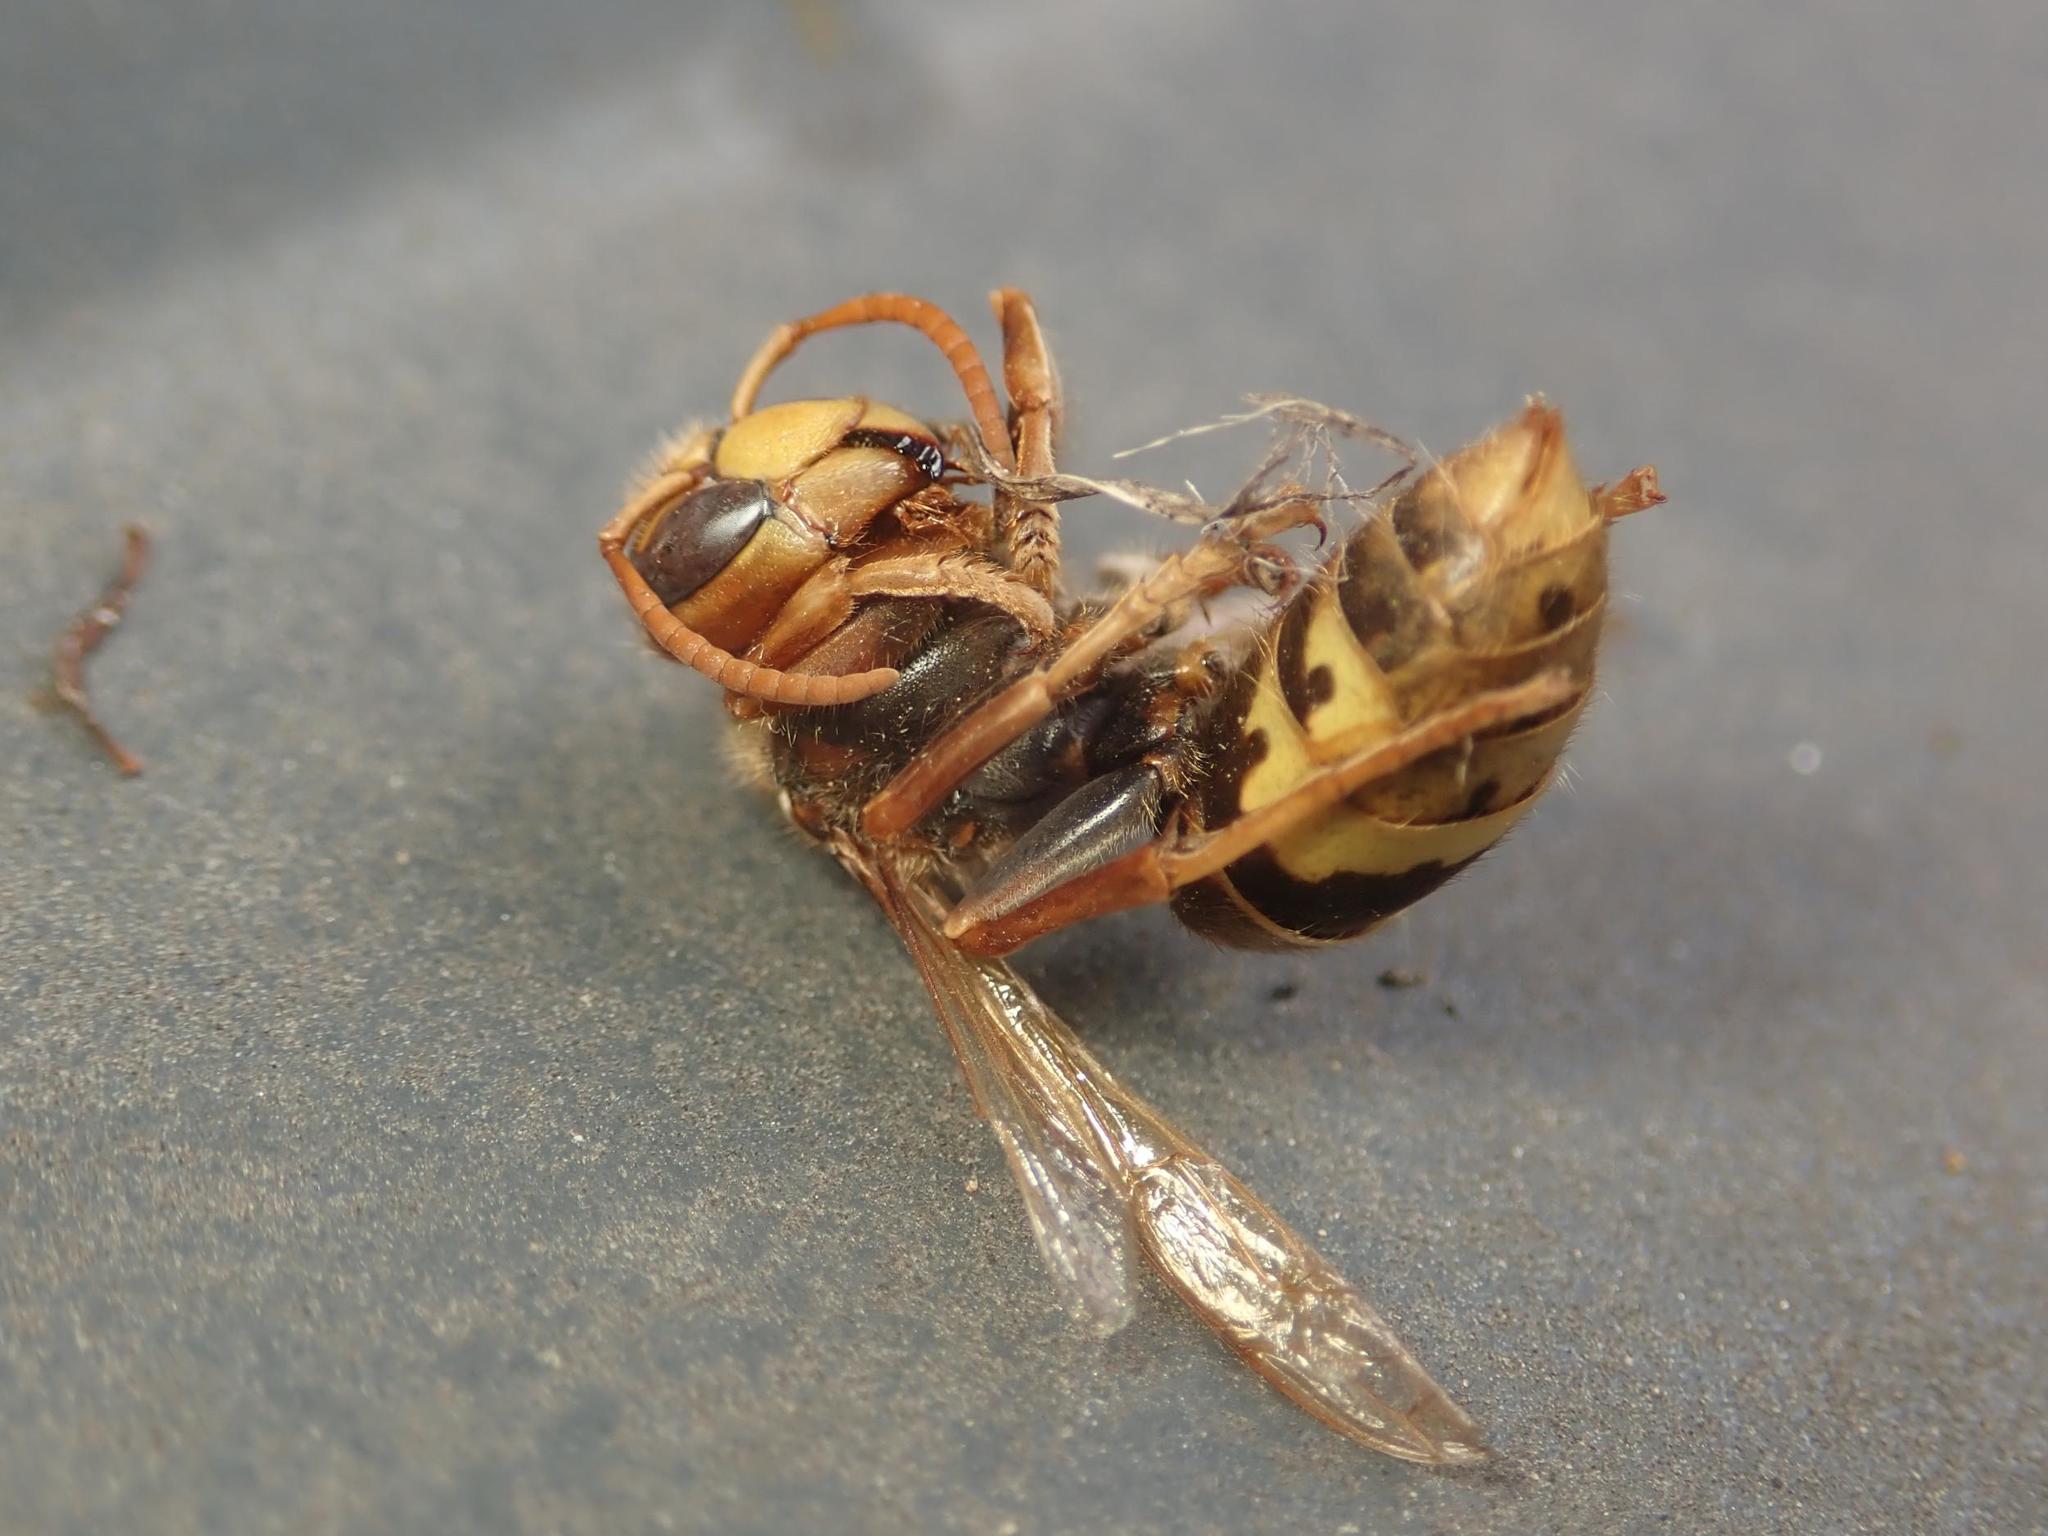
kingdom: Animalia
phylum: Arthropoda
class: Insecta
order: Hymenoptera
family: Vespidae
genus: Vespa
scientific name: Vespa crabro
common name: Hornet
